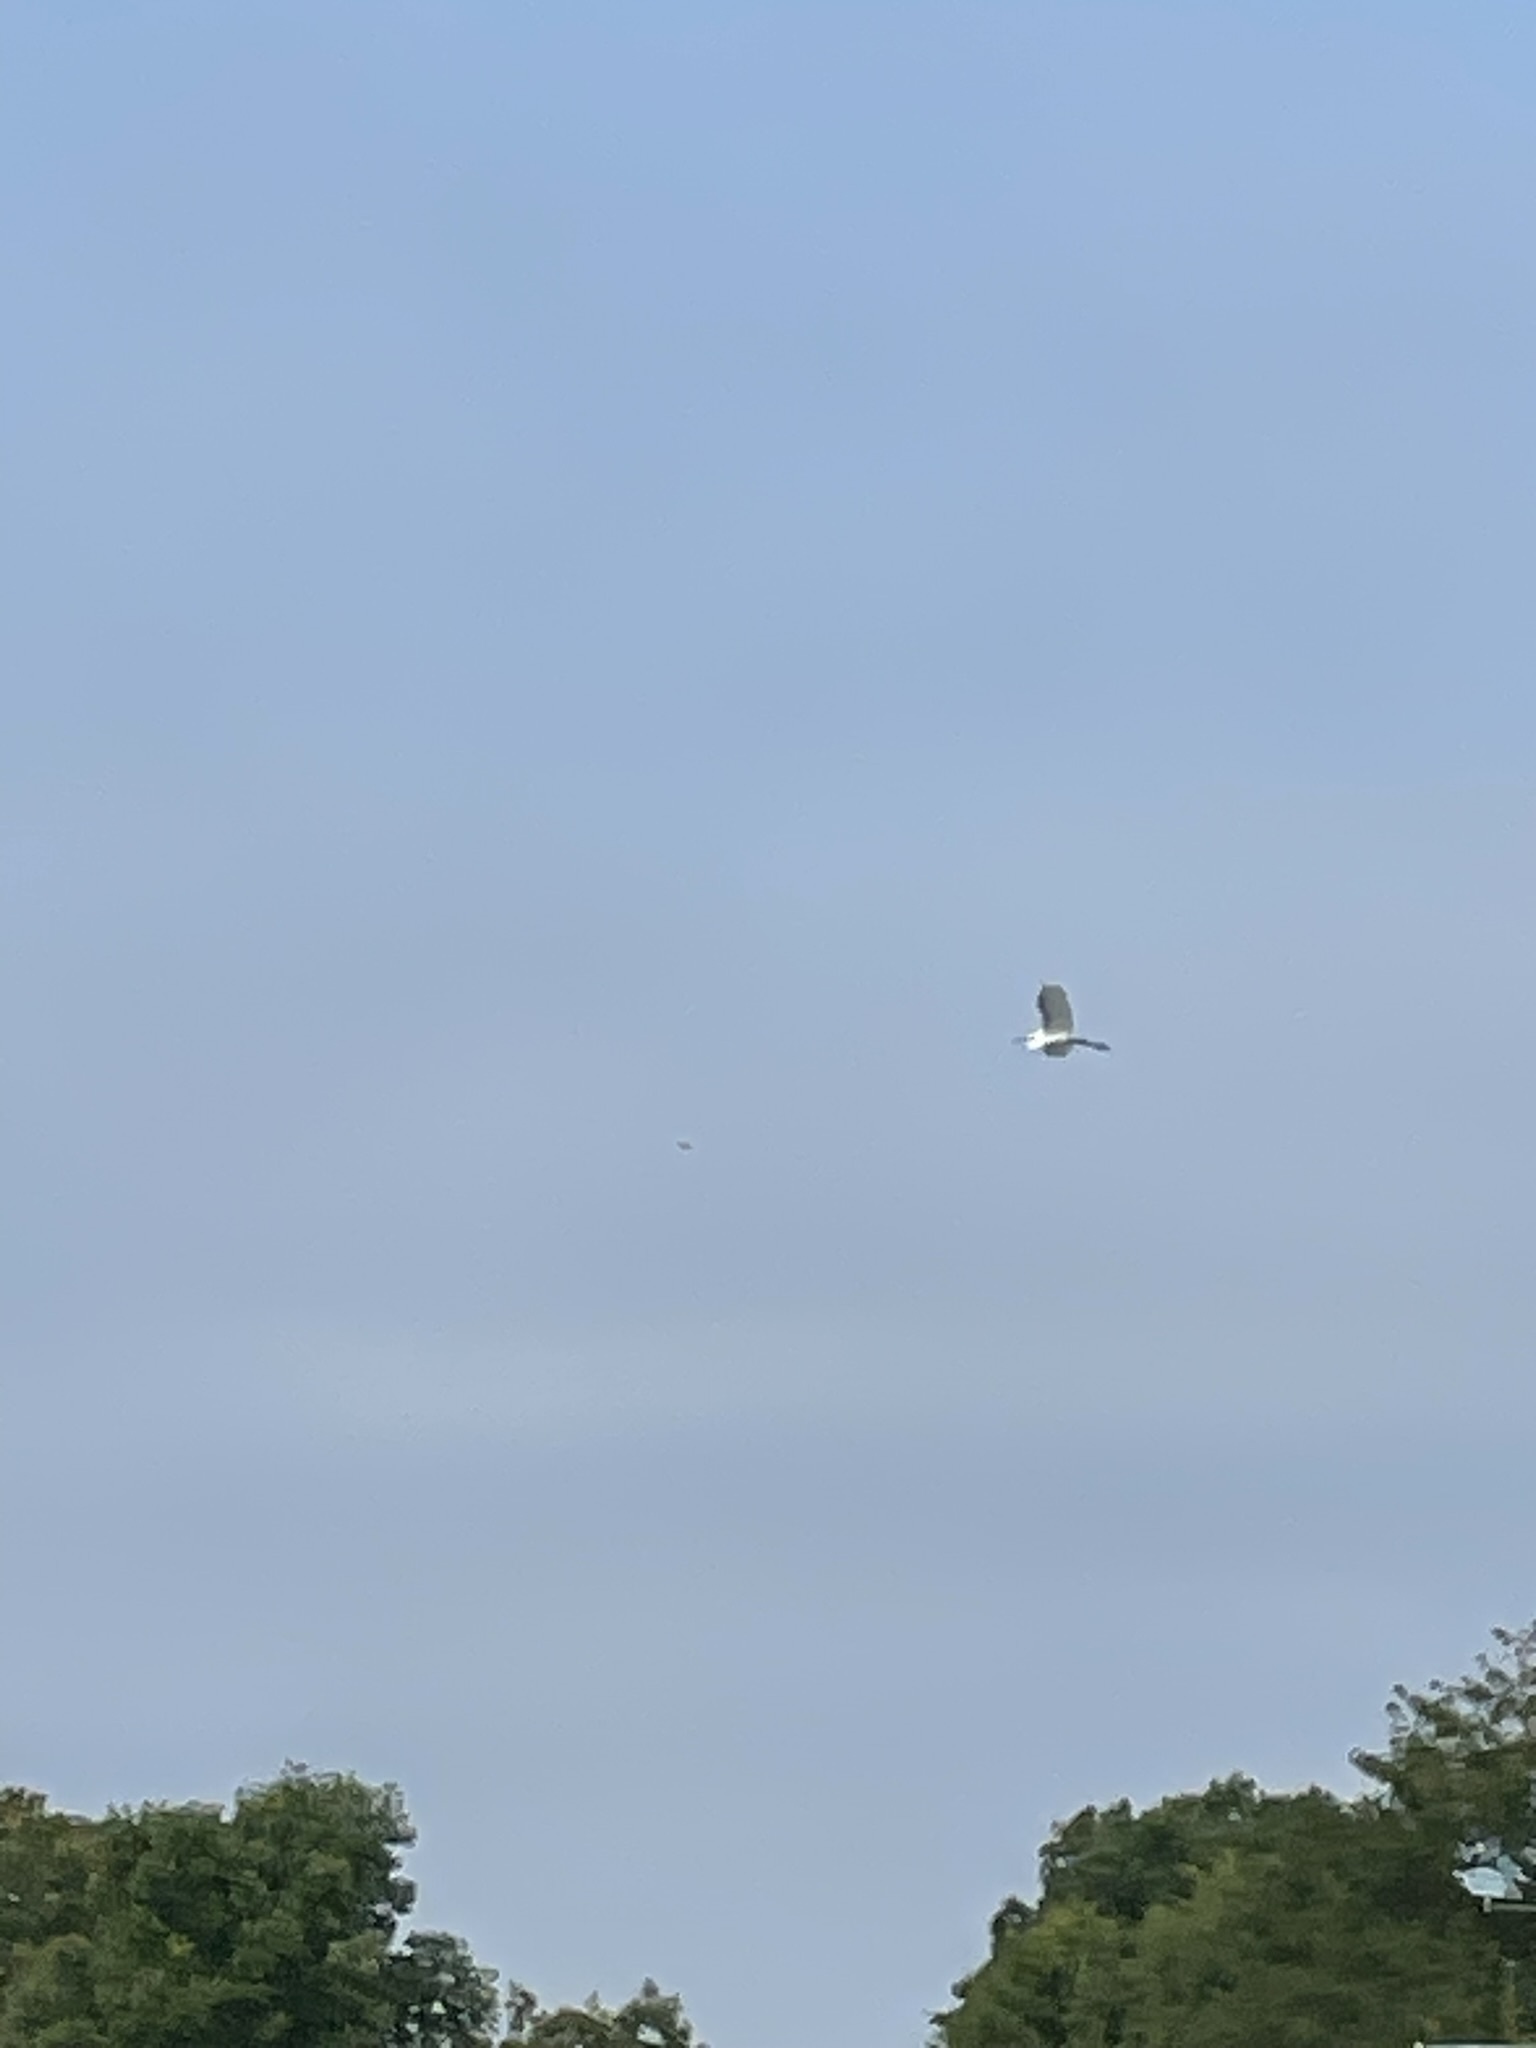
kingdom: Animalia
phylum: Chordata
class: Aves
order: Pelecaniformes
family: Ardeidae
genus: Ardea
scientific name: Ardea alba
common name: Great egret
